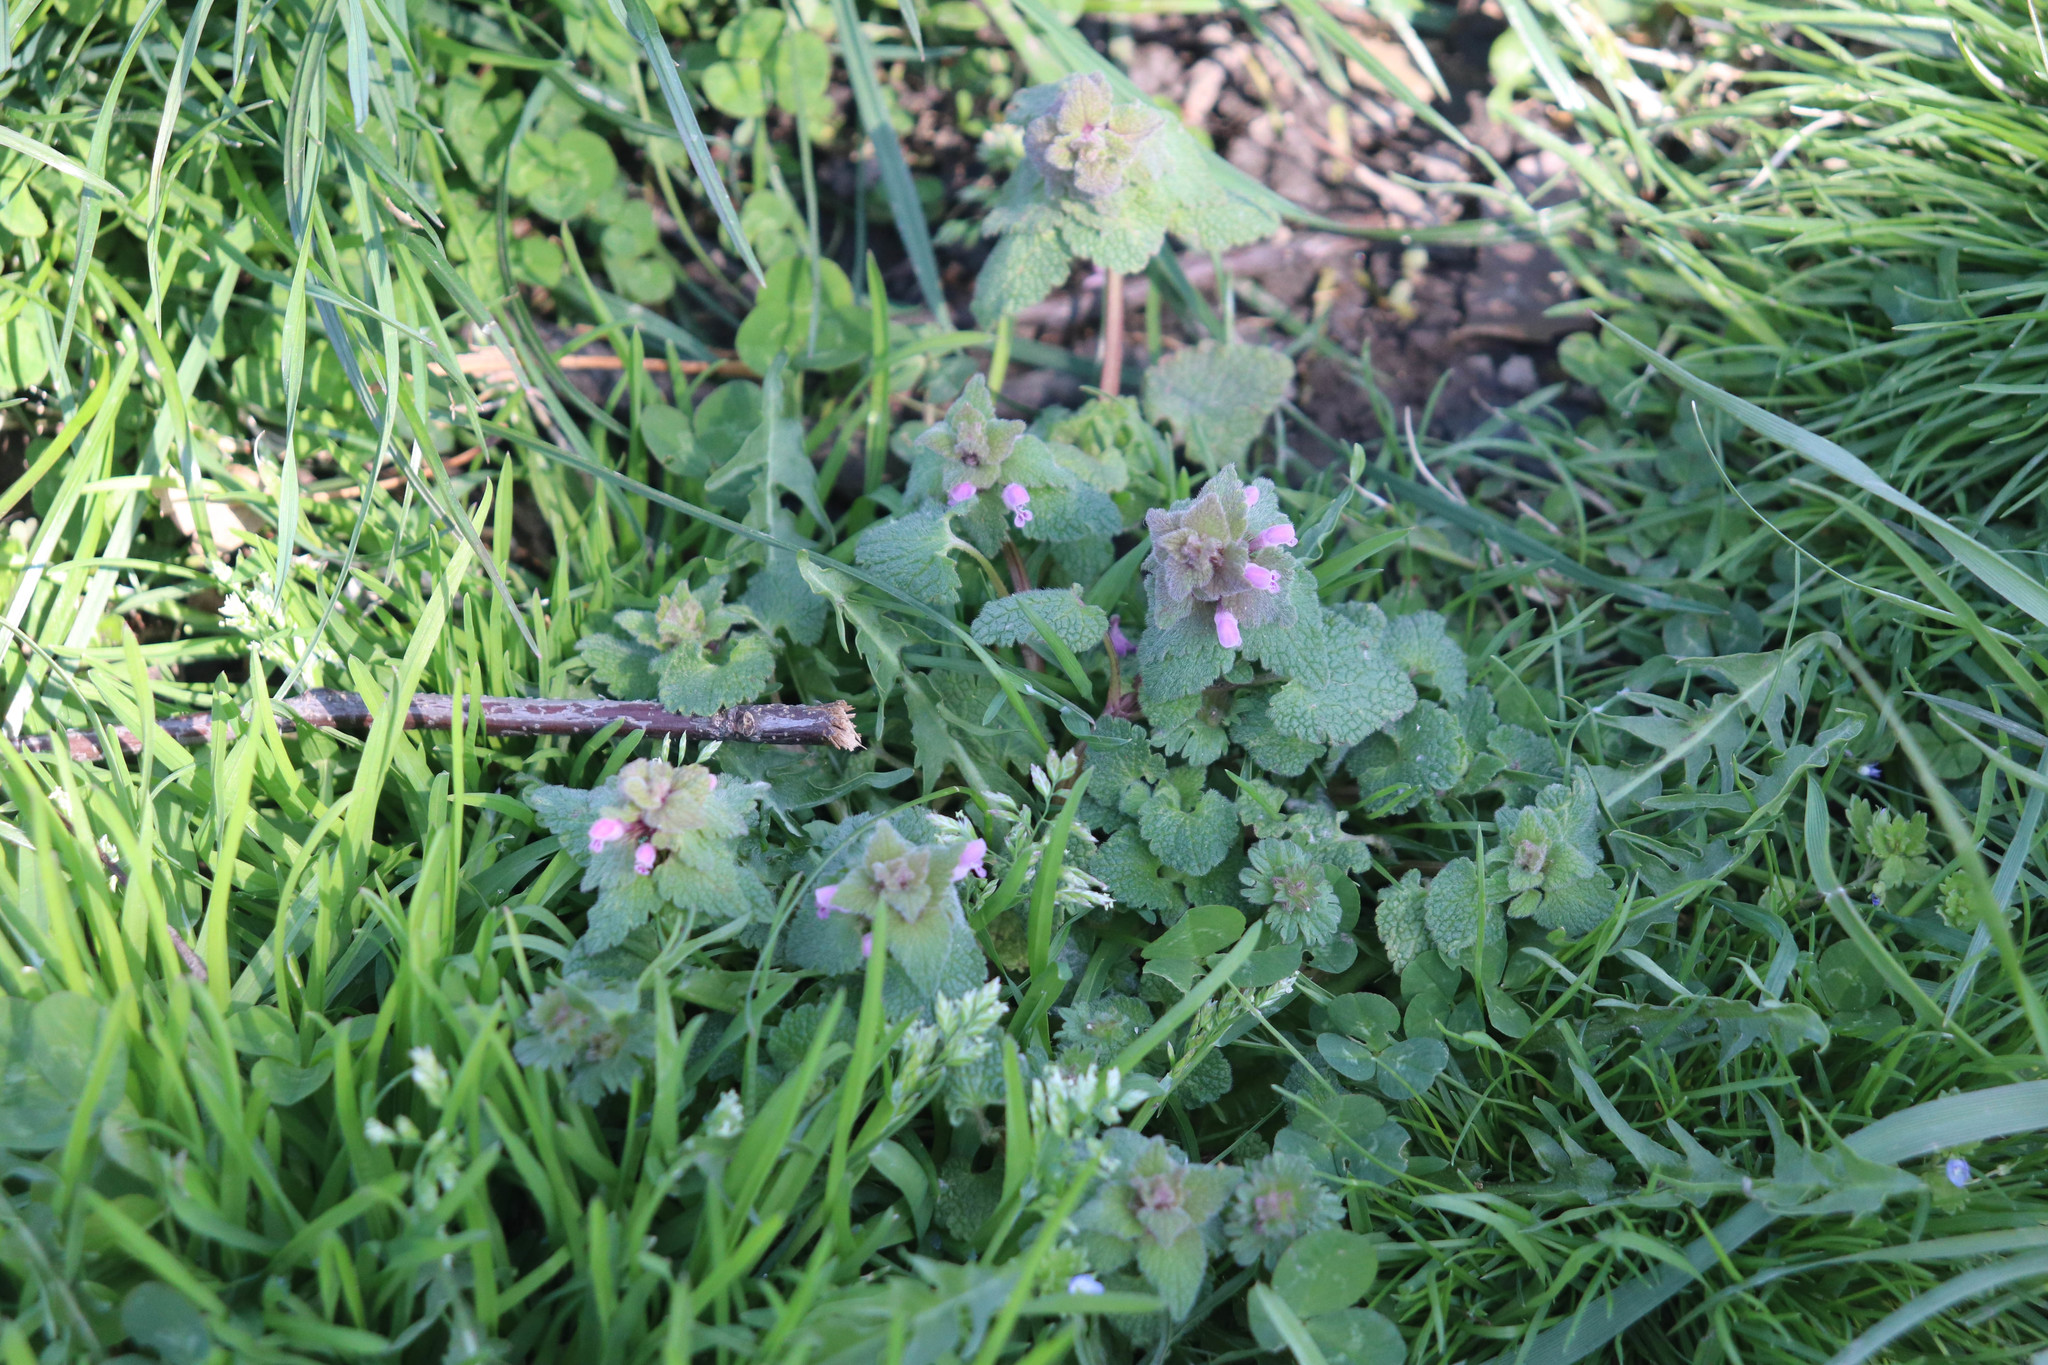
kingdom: Plantae
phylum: Tracheophyta
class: Magnoliopsida
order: Lamiales
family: Lamiaceae
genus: Lamium
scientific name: Lamium purpureum
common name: Red dead-nettle
